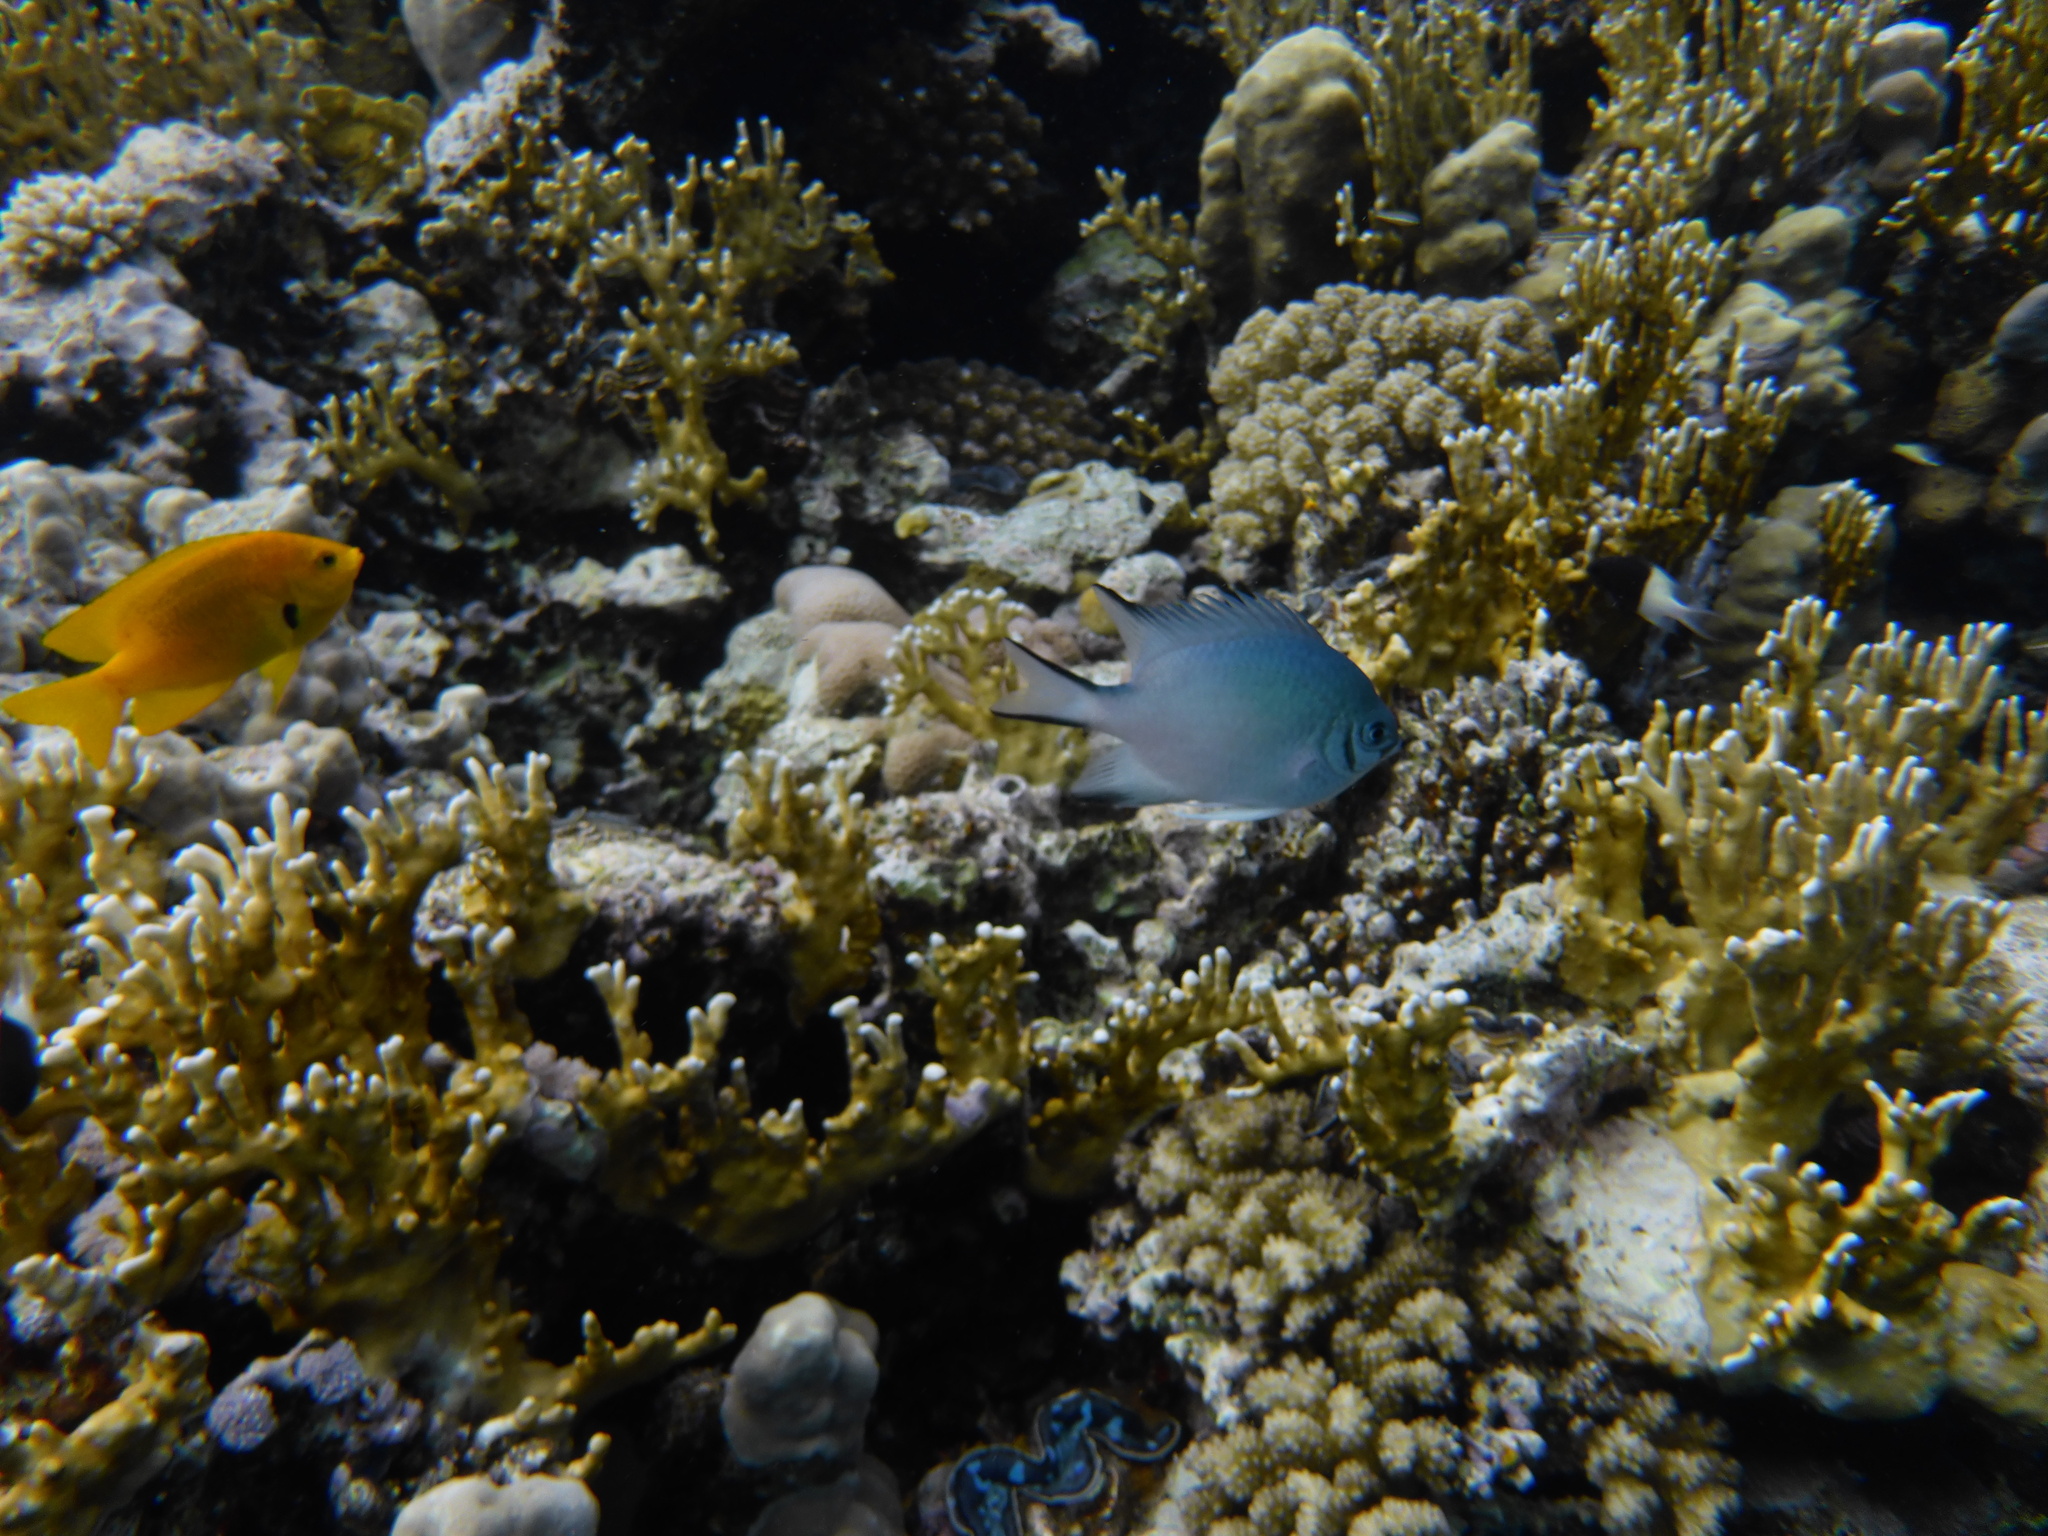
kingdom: Animalia
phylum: Chordata
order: Perciformes
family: Pomacentridae
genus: Amblyglyphidodon
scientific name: Amblyglyphidodon indicus
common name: Maldives damselfish
